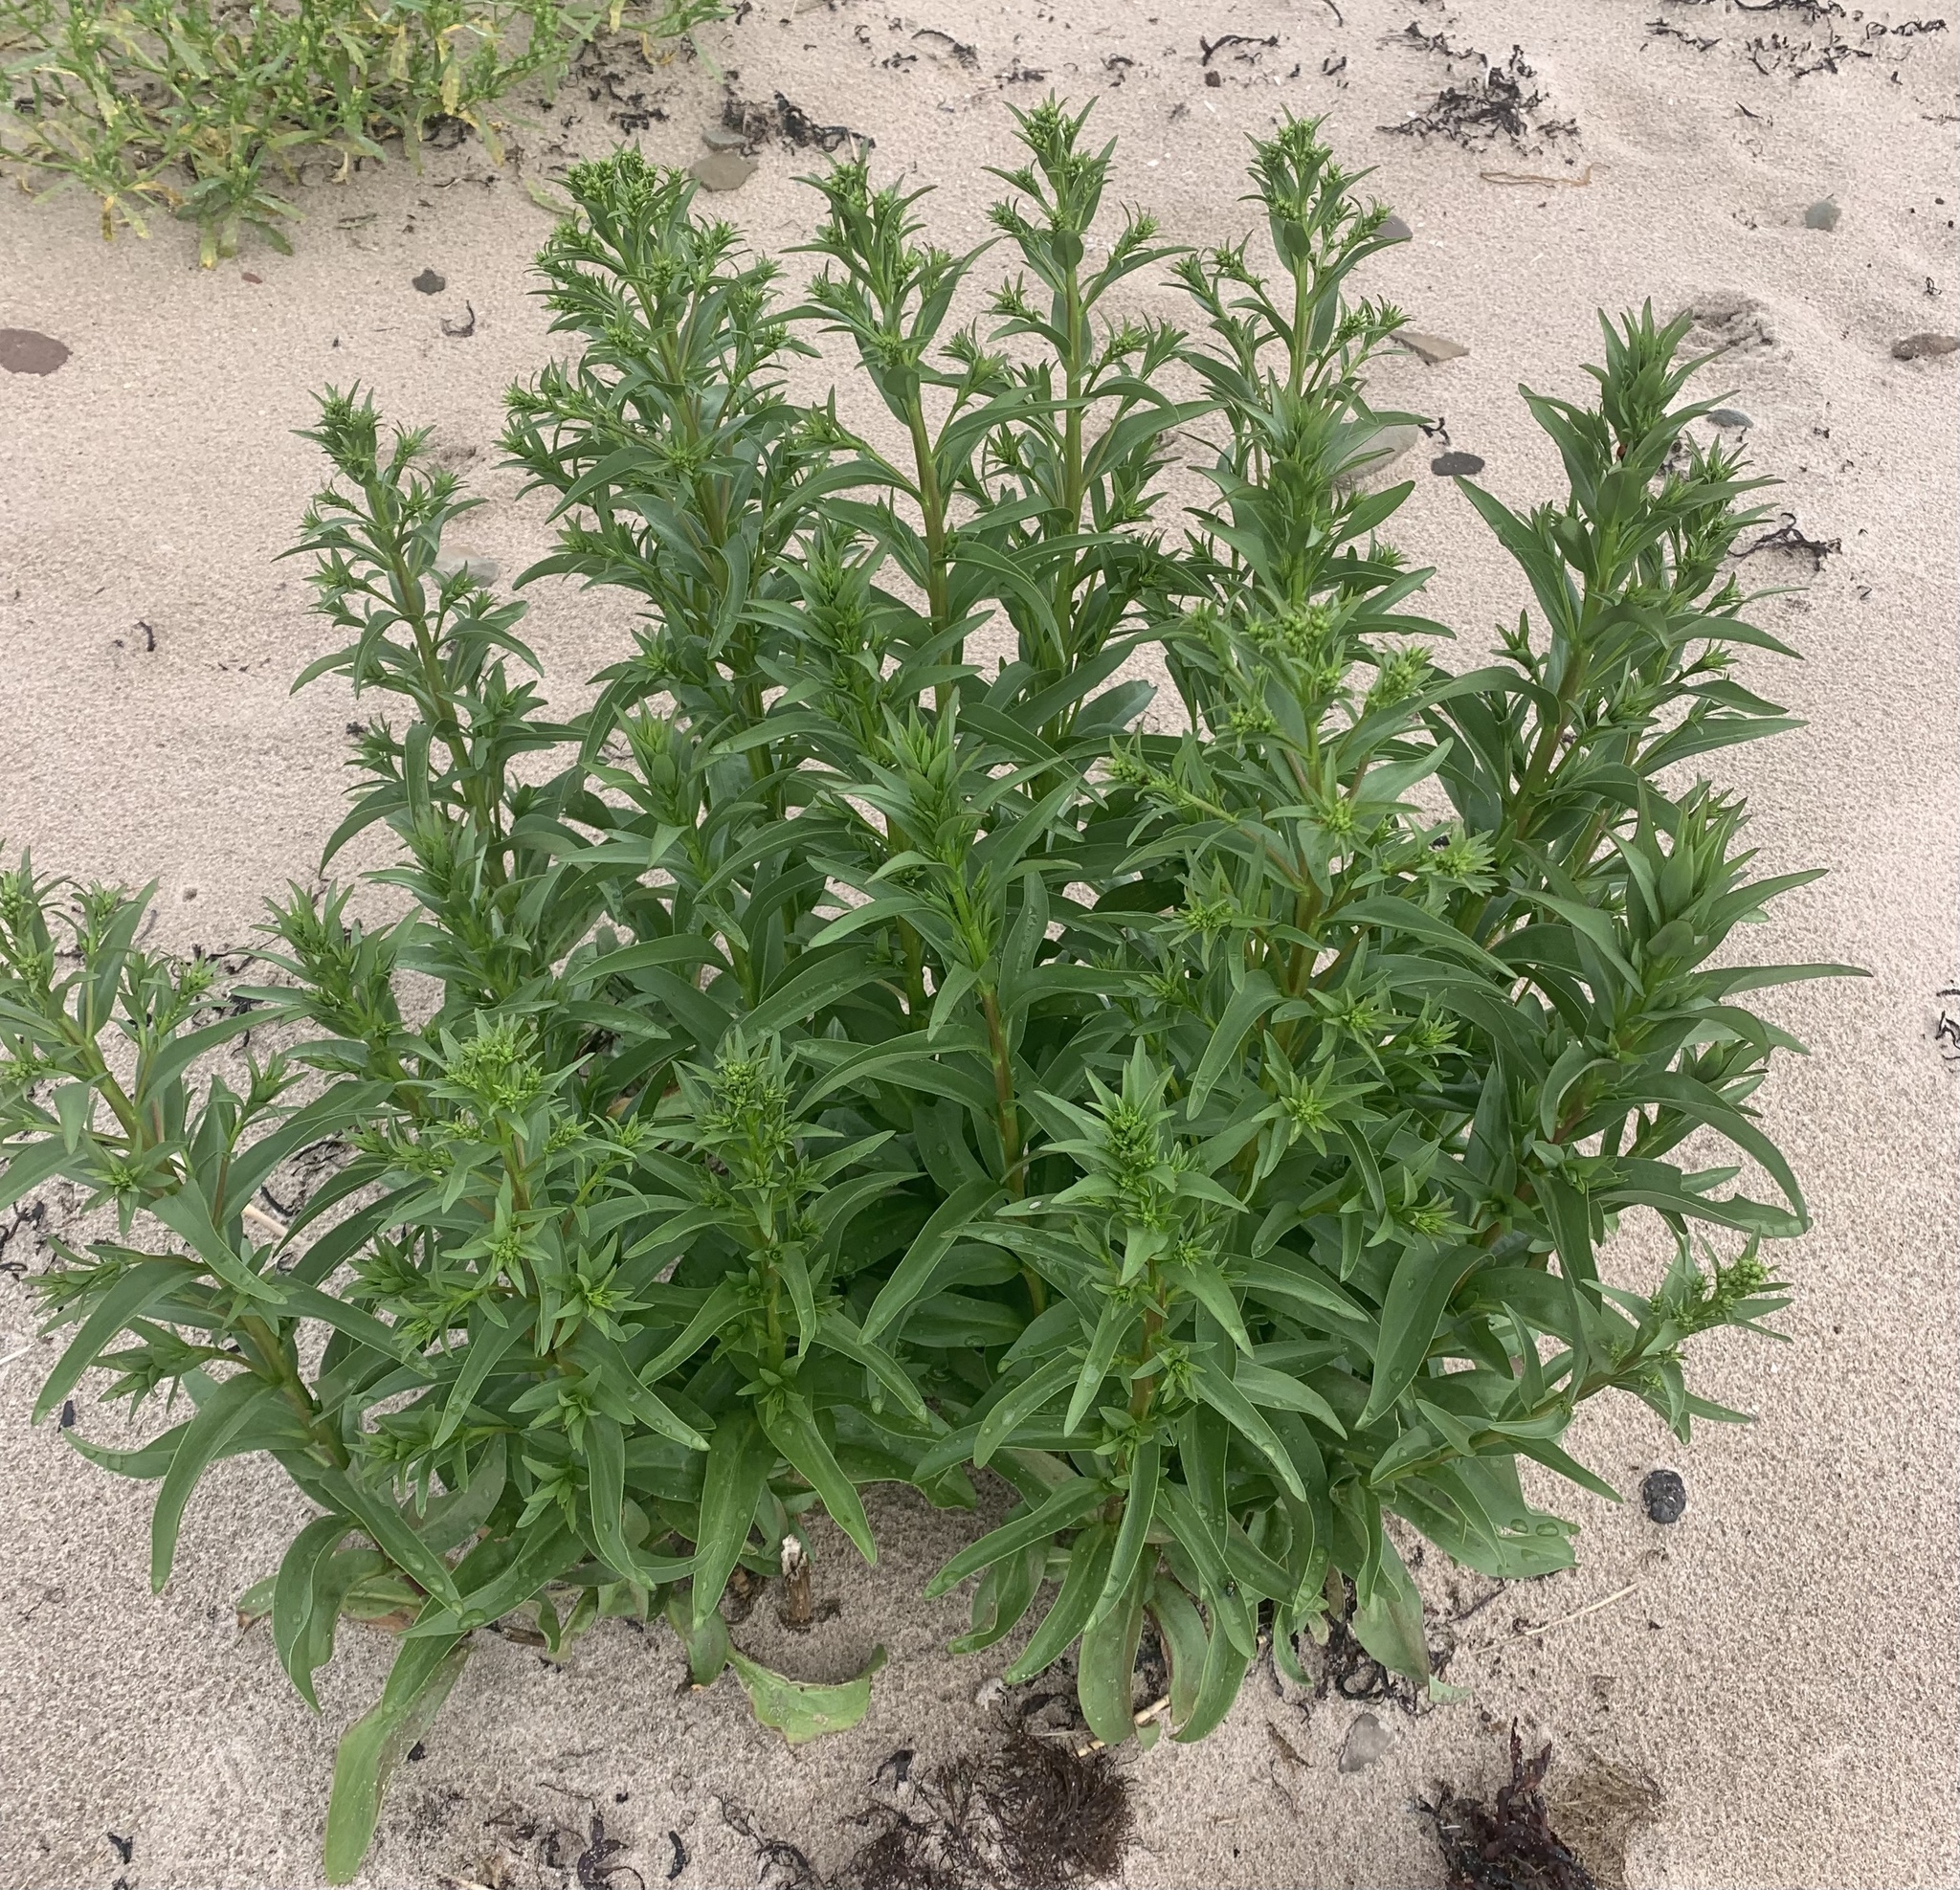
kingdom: Plantae
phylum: Tracheophyta
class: Magnoliopsida
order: Asterales
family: Asteraceae
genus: Solidago
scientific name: Solidago sempervirens
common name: Salt-marsh goldenrod
